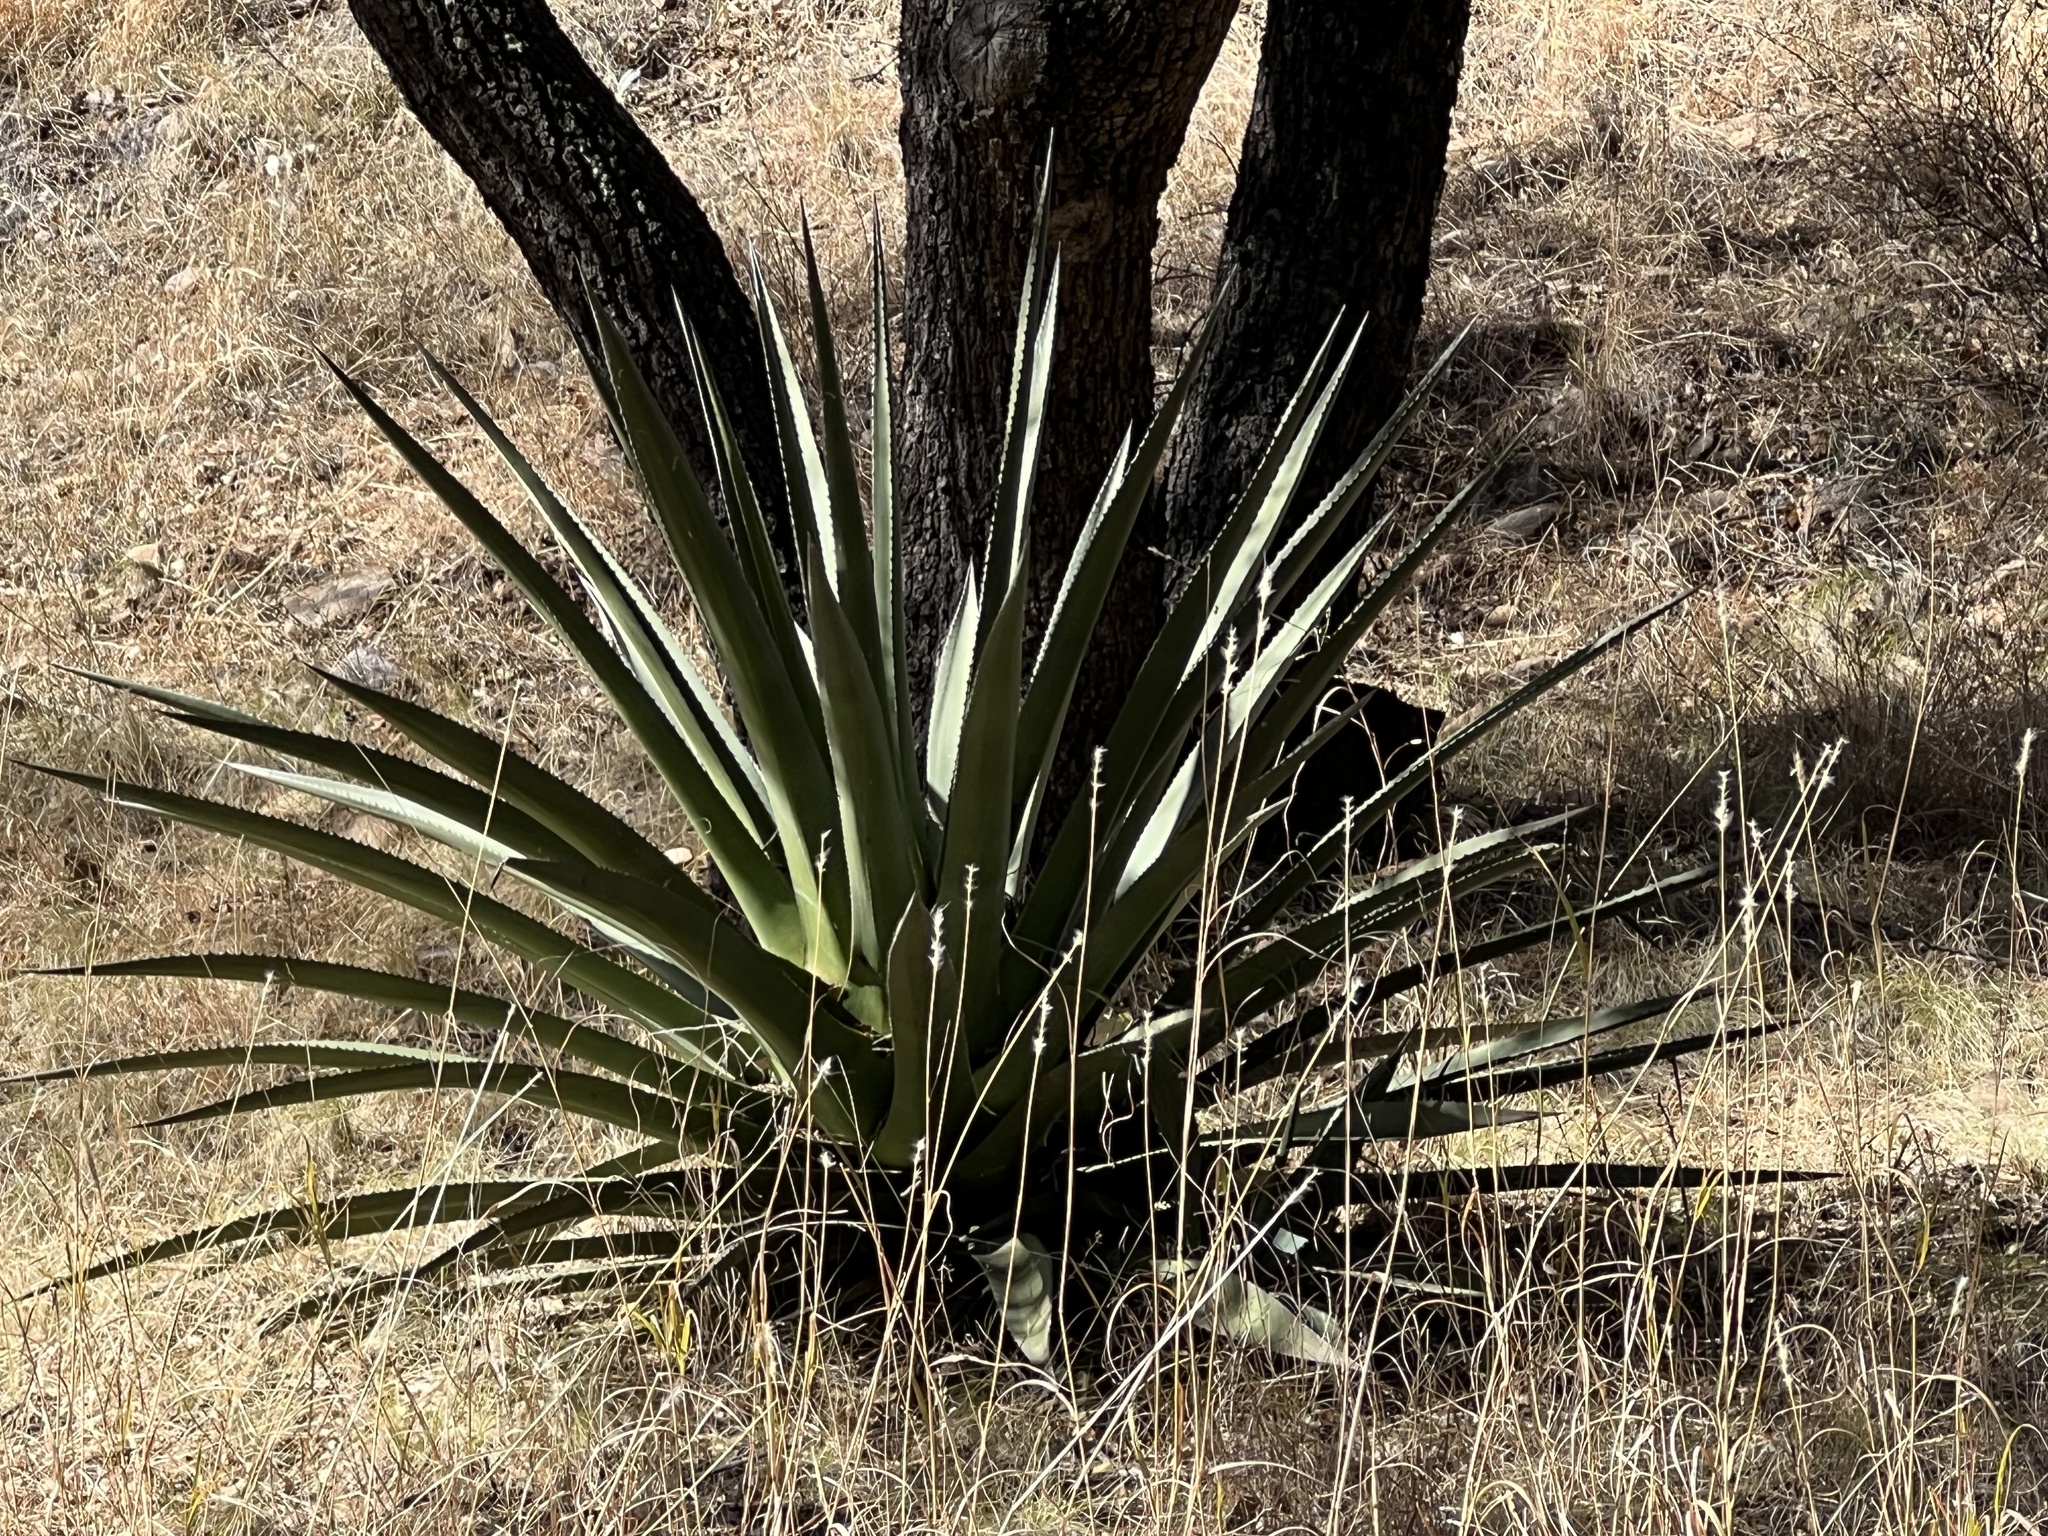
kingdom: Plantae
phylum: Tracheophyta
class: Liliopsida
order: Asparagales
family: Asparagaceae
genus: Agave
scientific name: Agave palmeri
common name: Palmer agave
